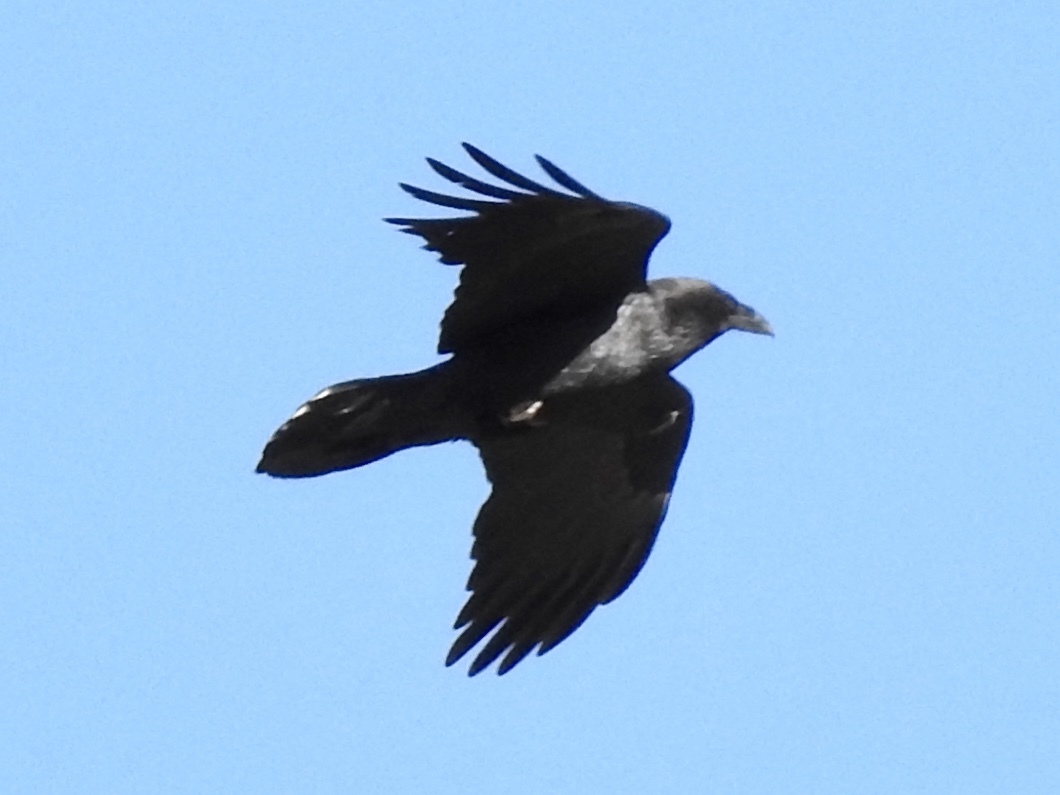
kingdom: Animalia
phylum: Chordata
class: Aves
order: Passeriformes
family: Corvidae
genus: Corvus
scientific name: Corvus corax
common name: Common raven
